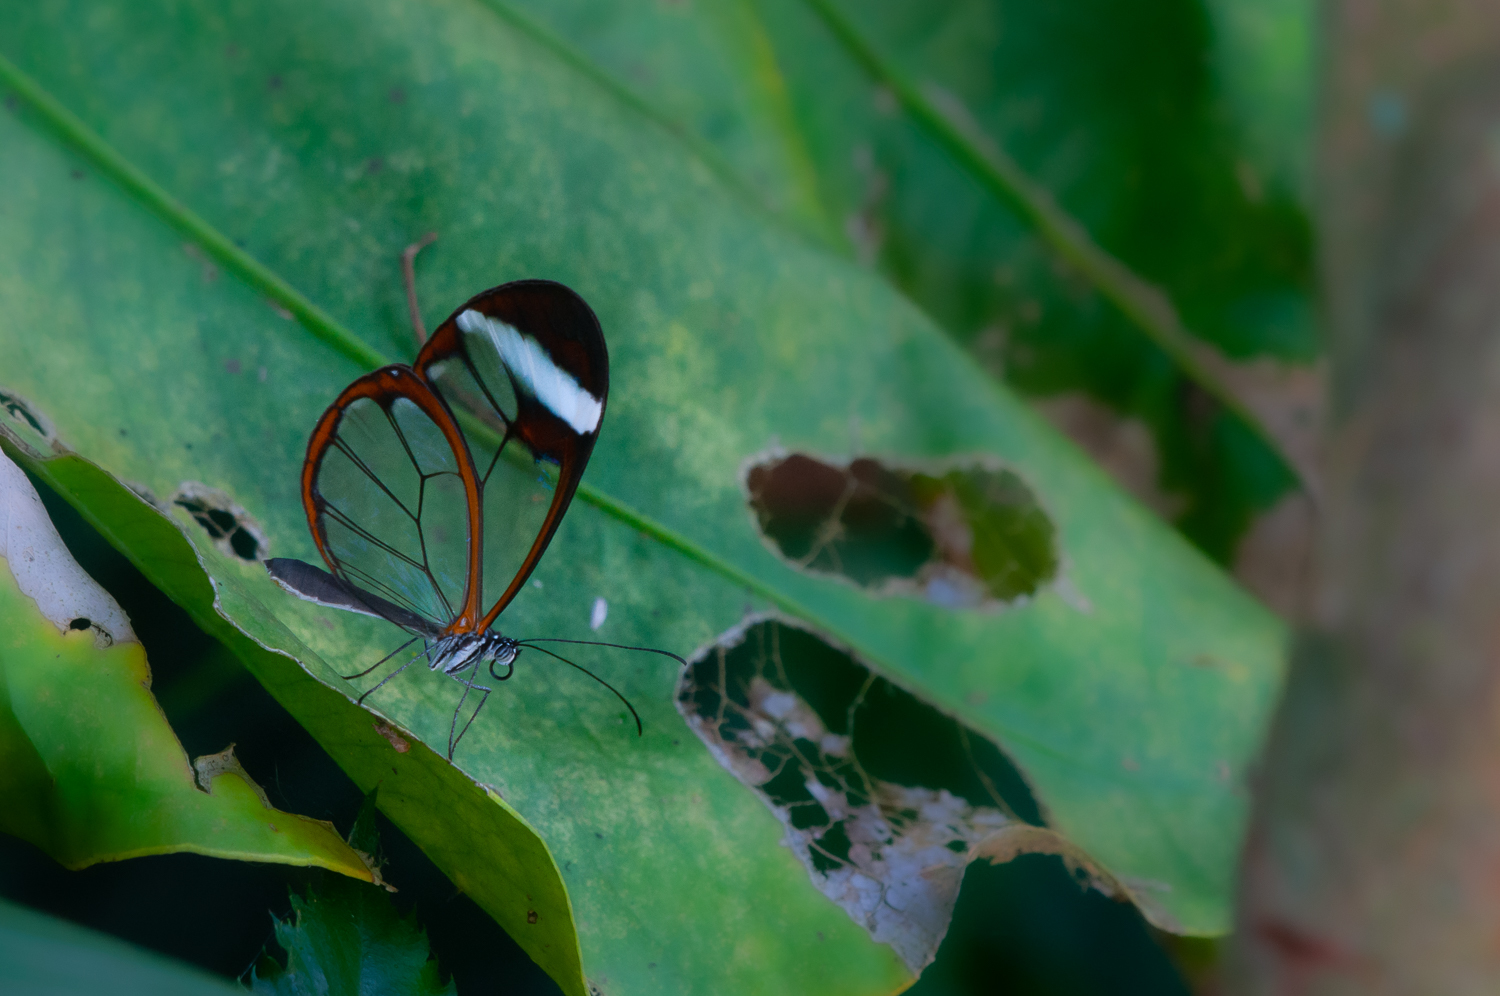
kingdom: Animalia
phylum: Arthropoda
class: Insecta
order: Lepidoptera
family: Nymphalidae
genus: Greta
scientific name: Greta morgane
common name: Thick-tipped greta
